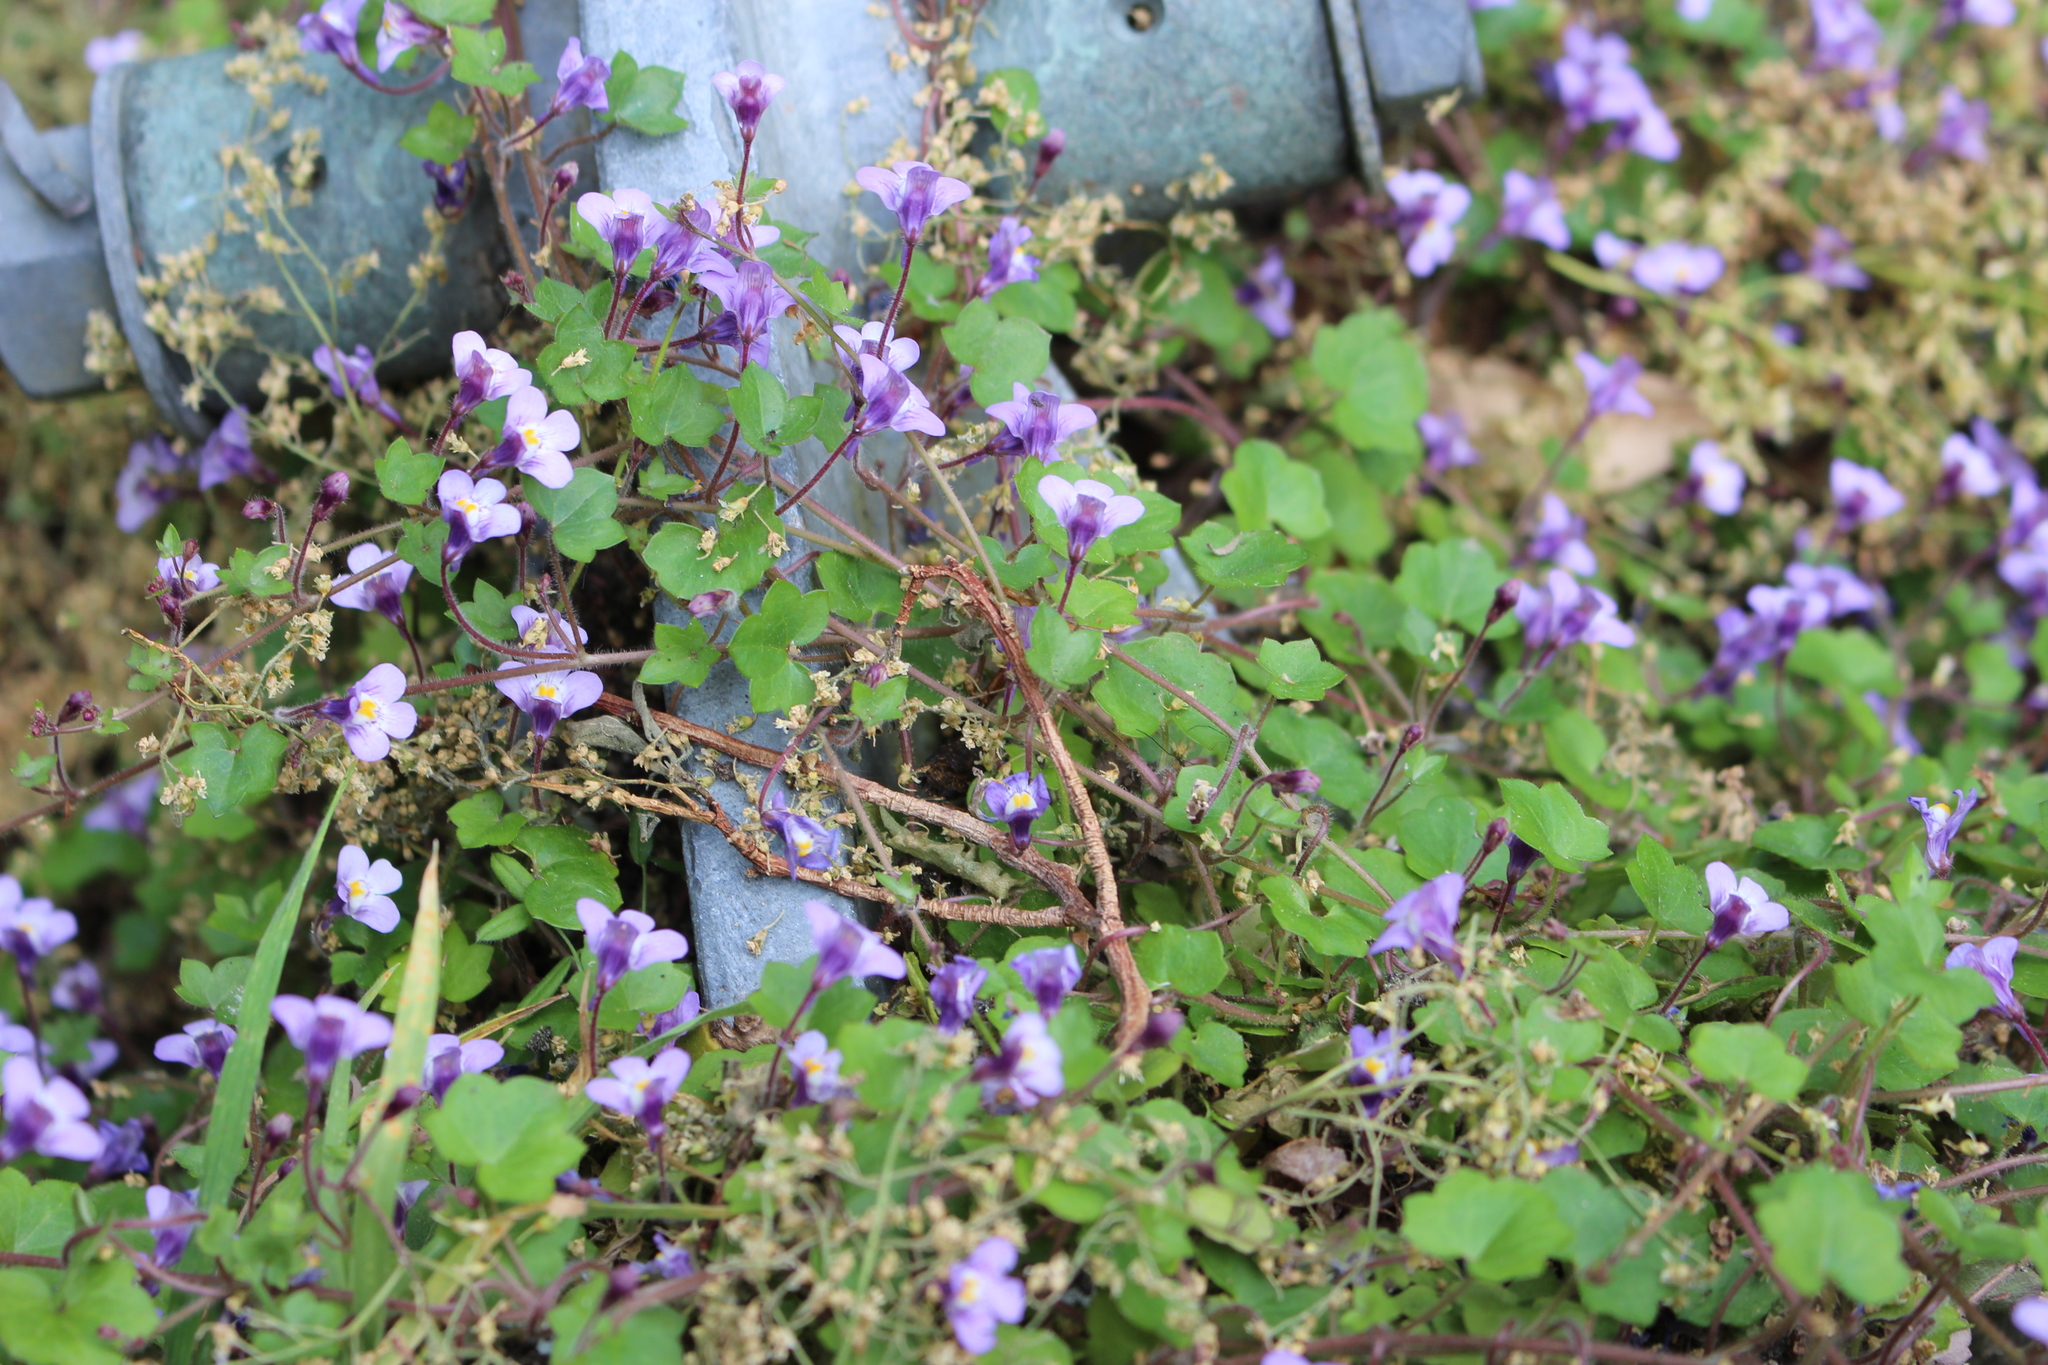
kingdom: Plantae
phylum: Tracheophyta
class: Magnoliopsida
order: Lamiales
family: Plantaginaceae
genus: Cymbalaria
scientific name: Cymbalaria muralis
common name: Ivy-leaved toadflax
